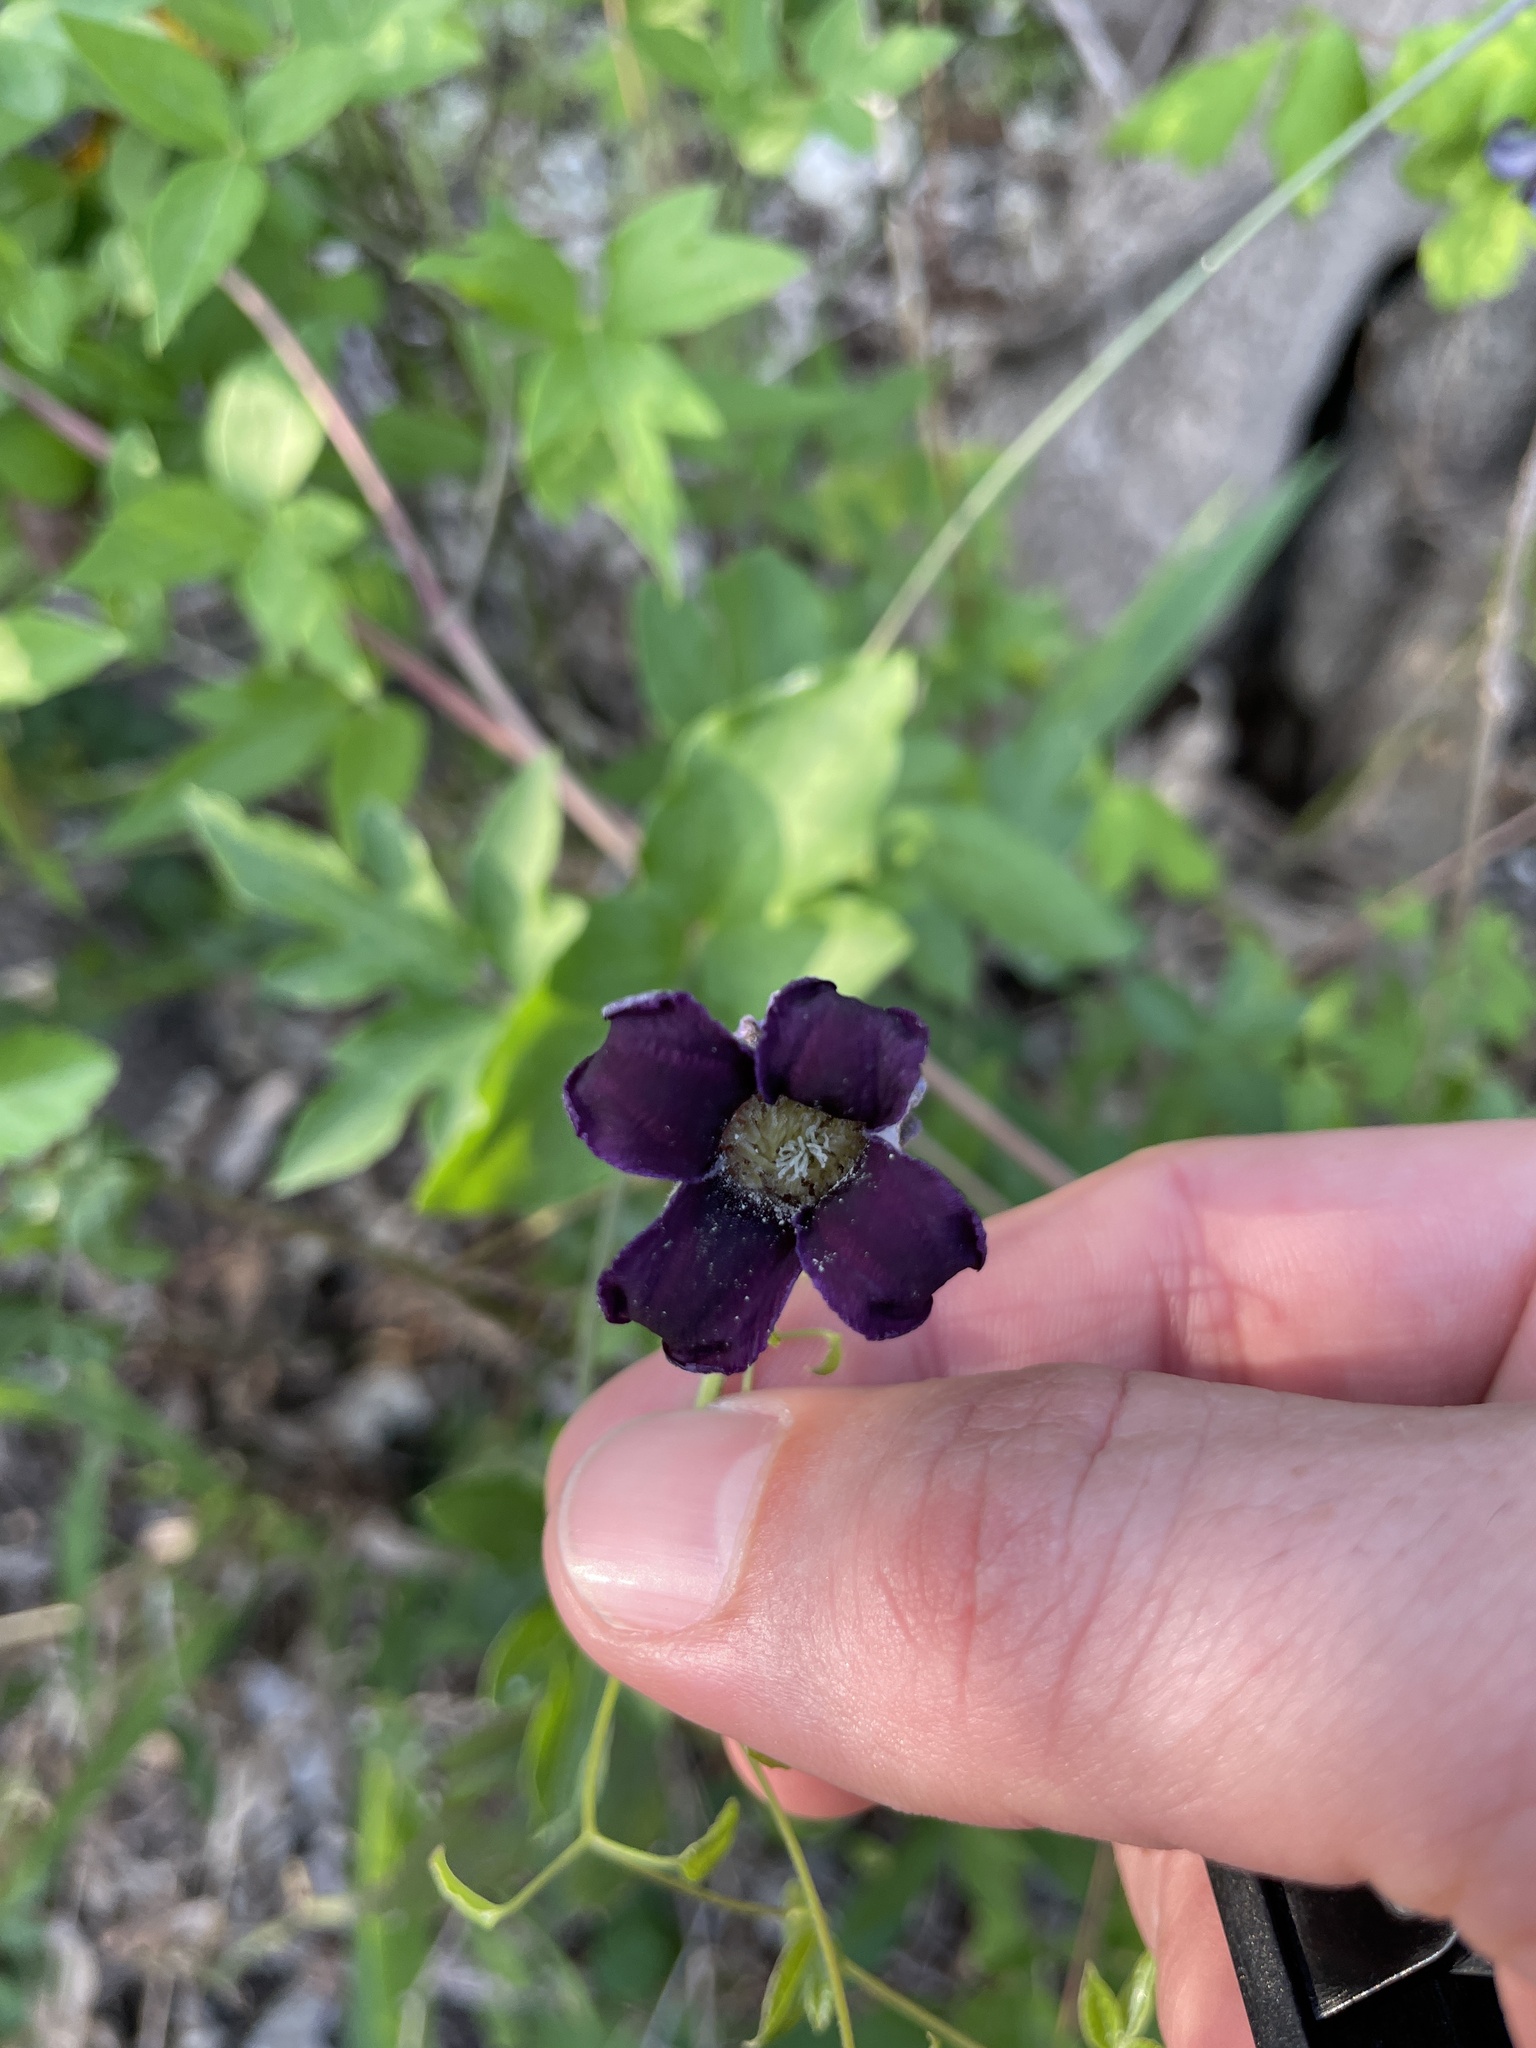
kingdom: Plantae
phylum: Tracheophyta
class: Magnoliopsida
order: Ranunculales
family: Ranunculaceae
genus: Clematis
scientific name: Clematis pitcheri
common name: Bellflower clematis
